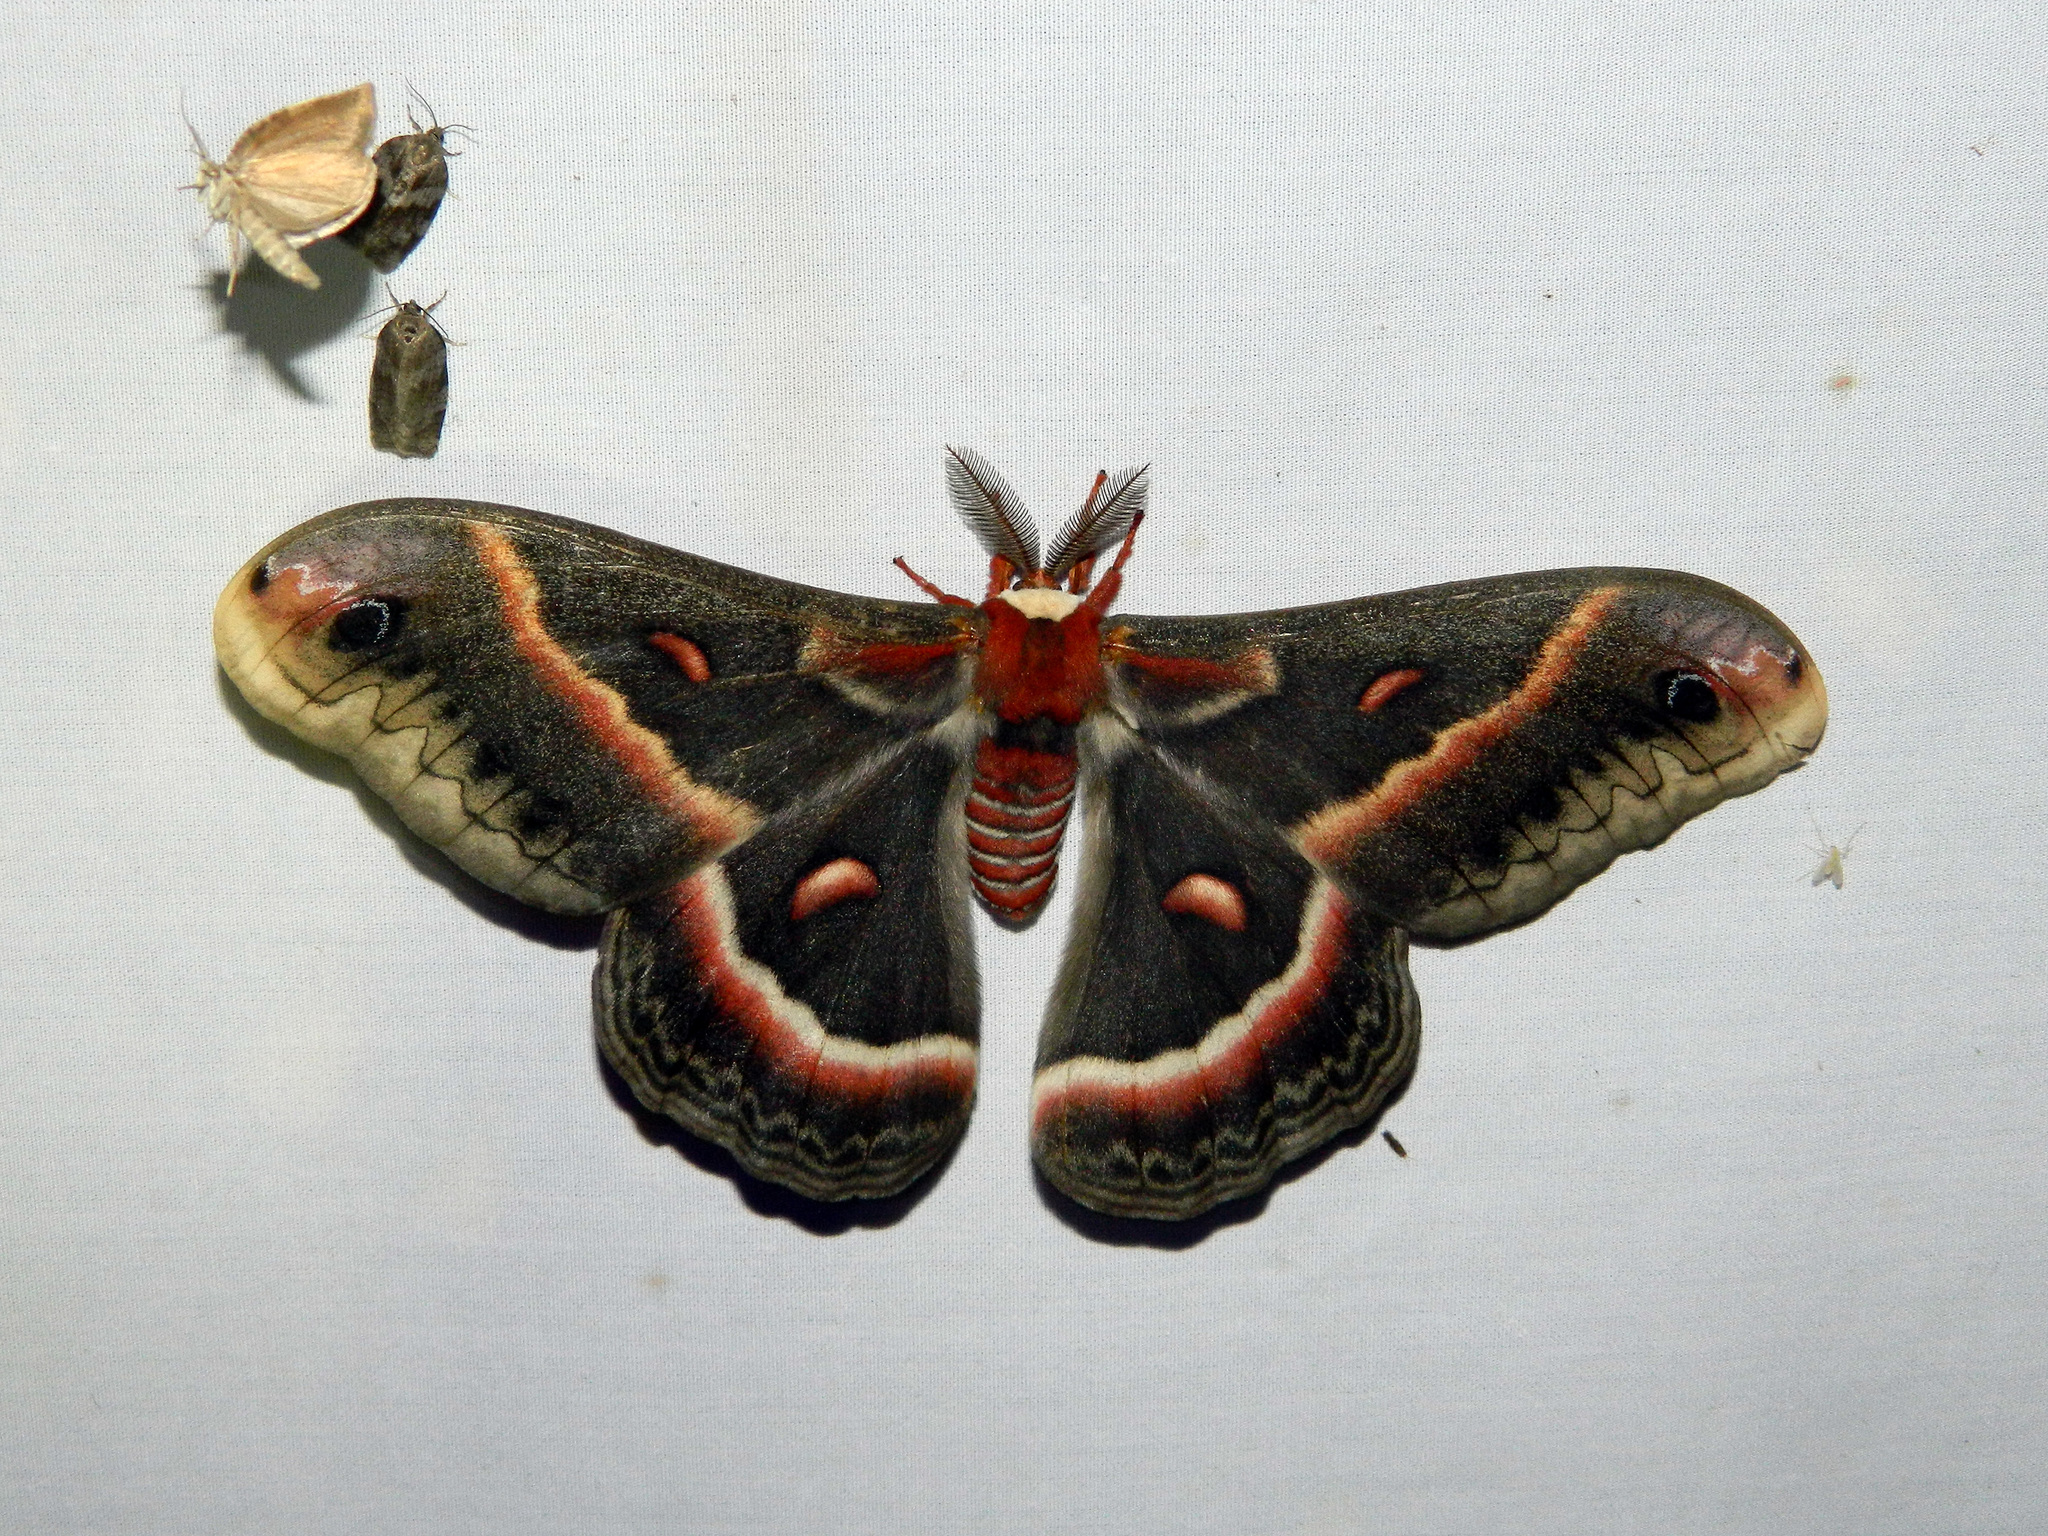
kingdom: Animalia
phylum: Arthropoda
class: Insecta
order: Lepidoptera
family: Saturniidae
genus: Hyalophora
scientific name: Hyalophora cecropia
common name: Cecropia silkmoth
